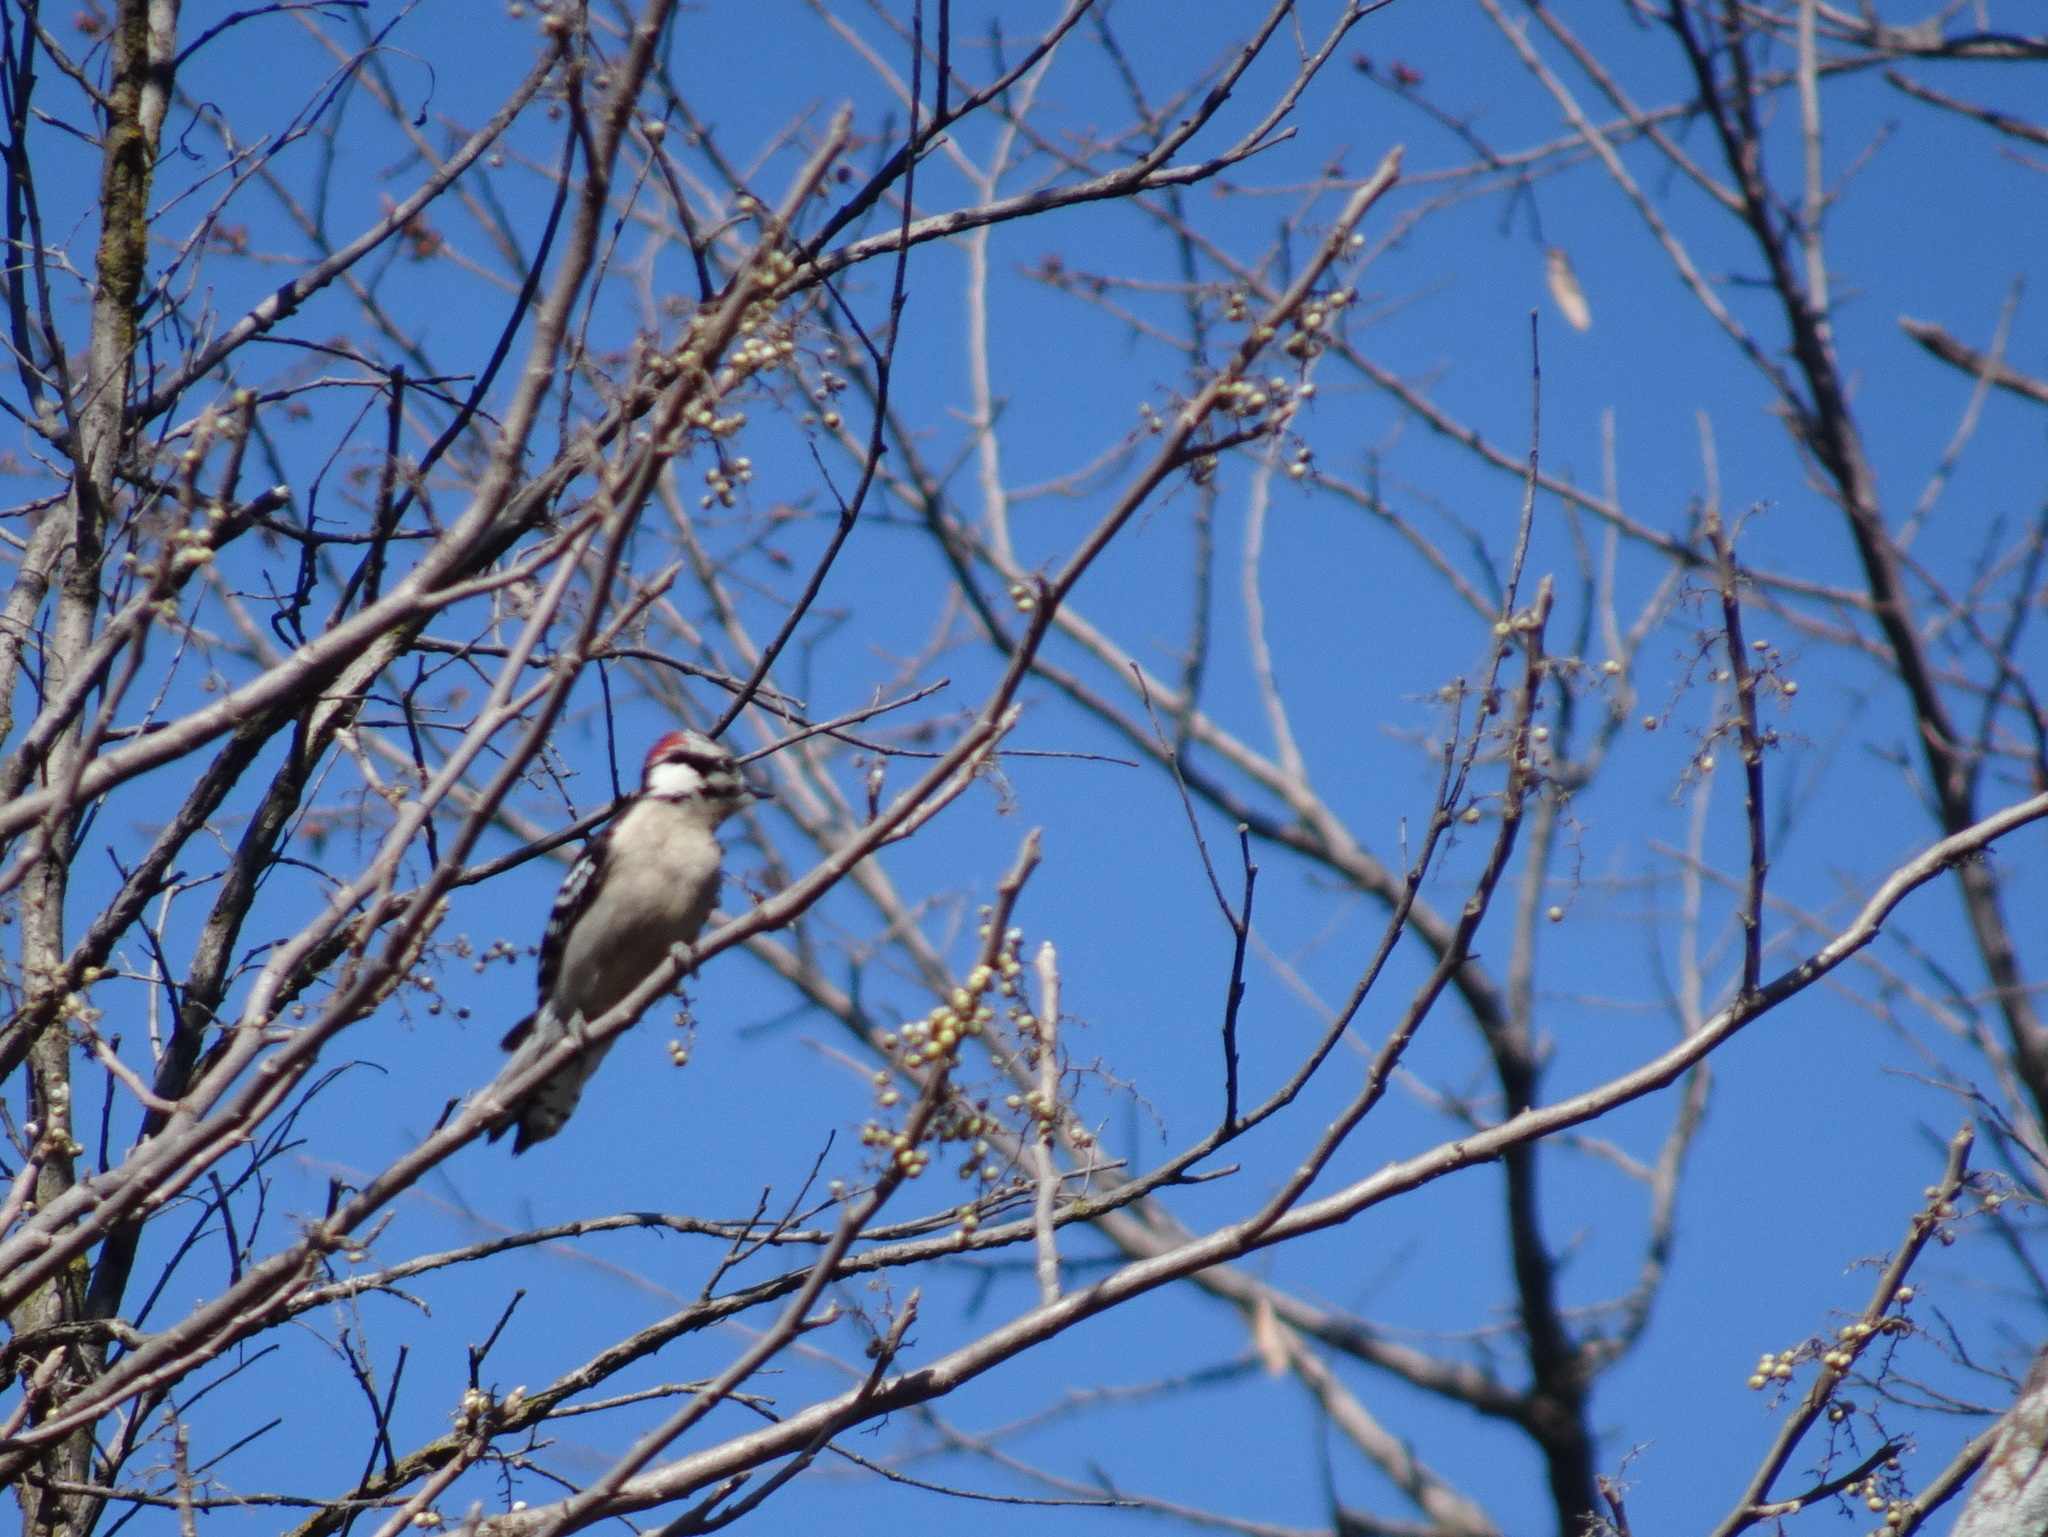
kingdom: Animalia
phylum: Chordata
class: Aves
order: Piciformes
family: Picidae
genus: Dryobates
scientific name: Dryobates pubescens
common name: Downy woodpecker
